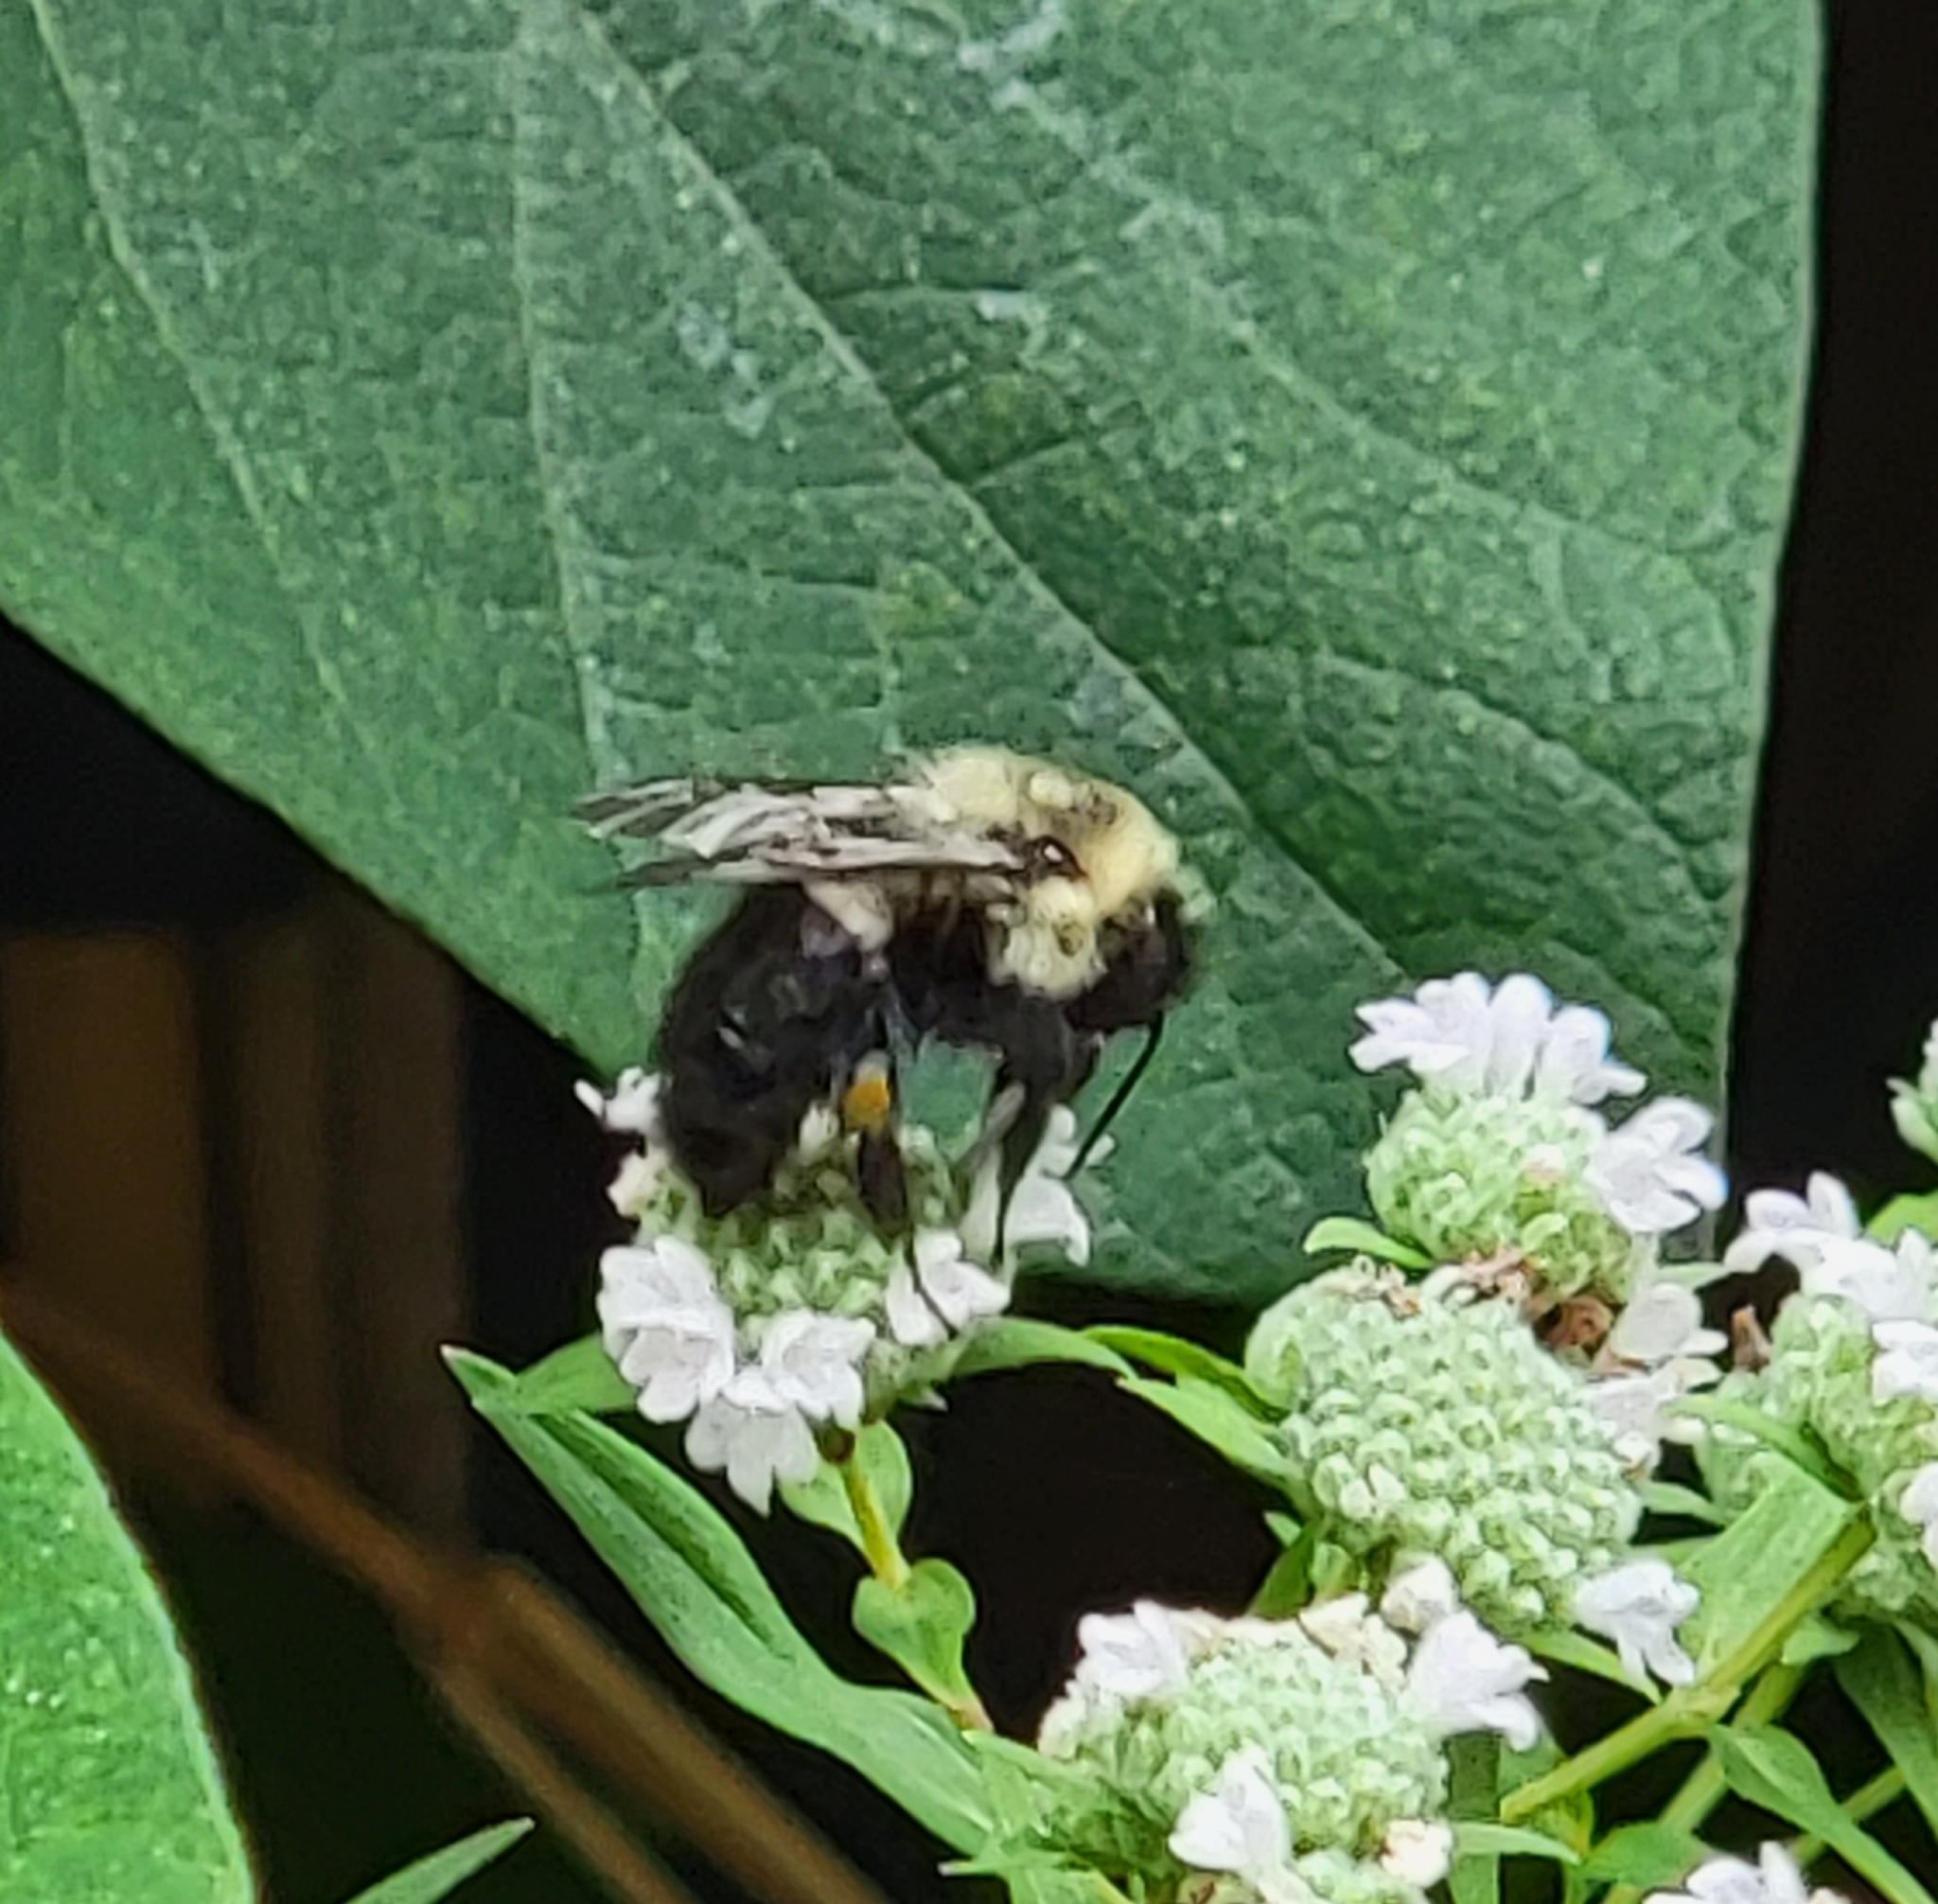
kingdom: Animalia
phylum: Arthropoda
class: Insecta
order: Hymenoptera
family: Apidae
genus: Bombus
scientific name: Bombus impatiens
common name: Common eastern bumble bee
